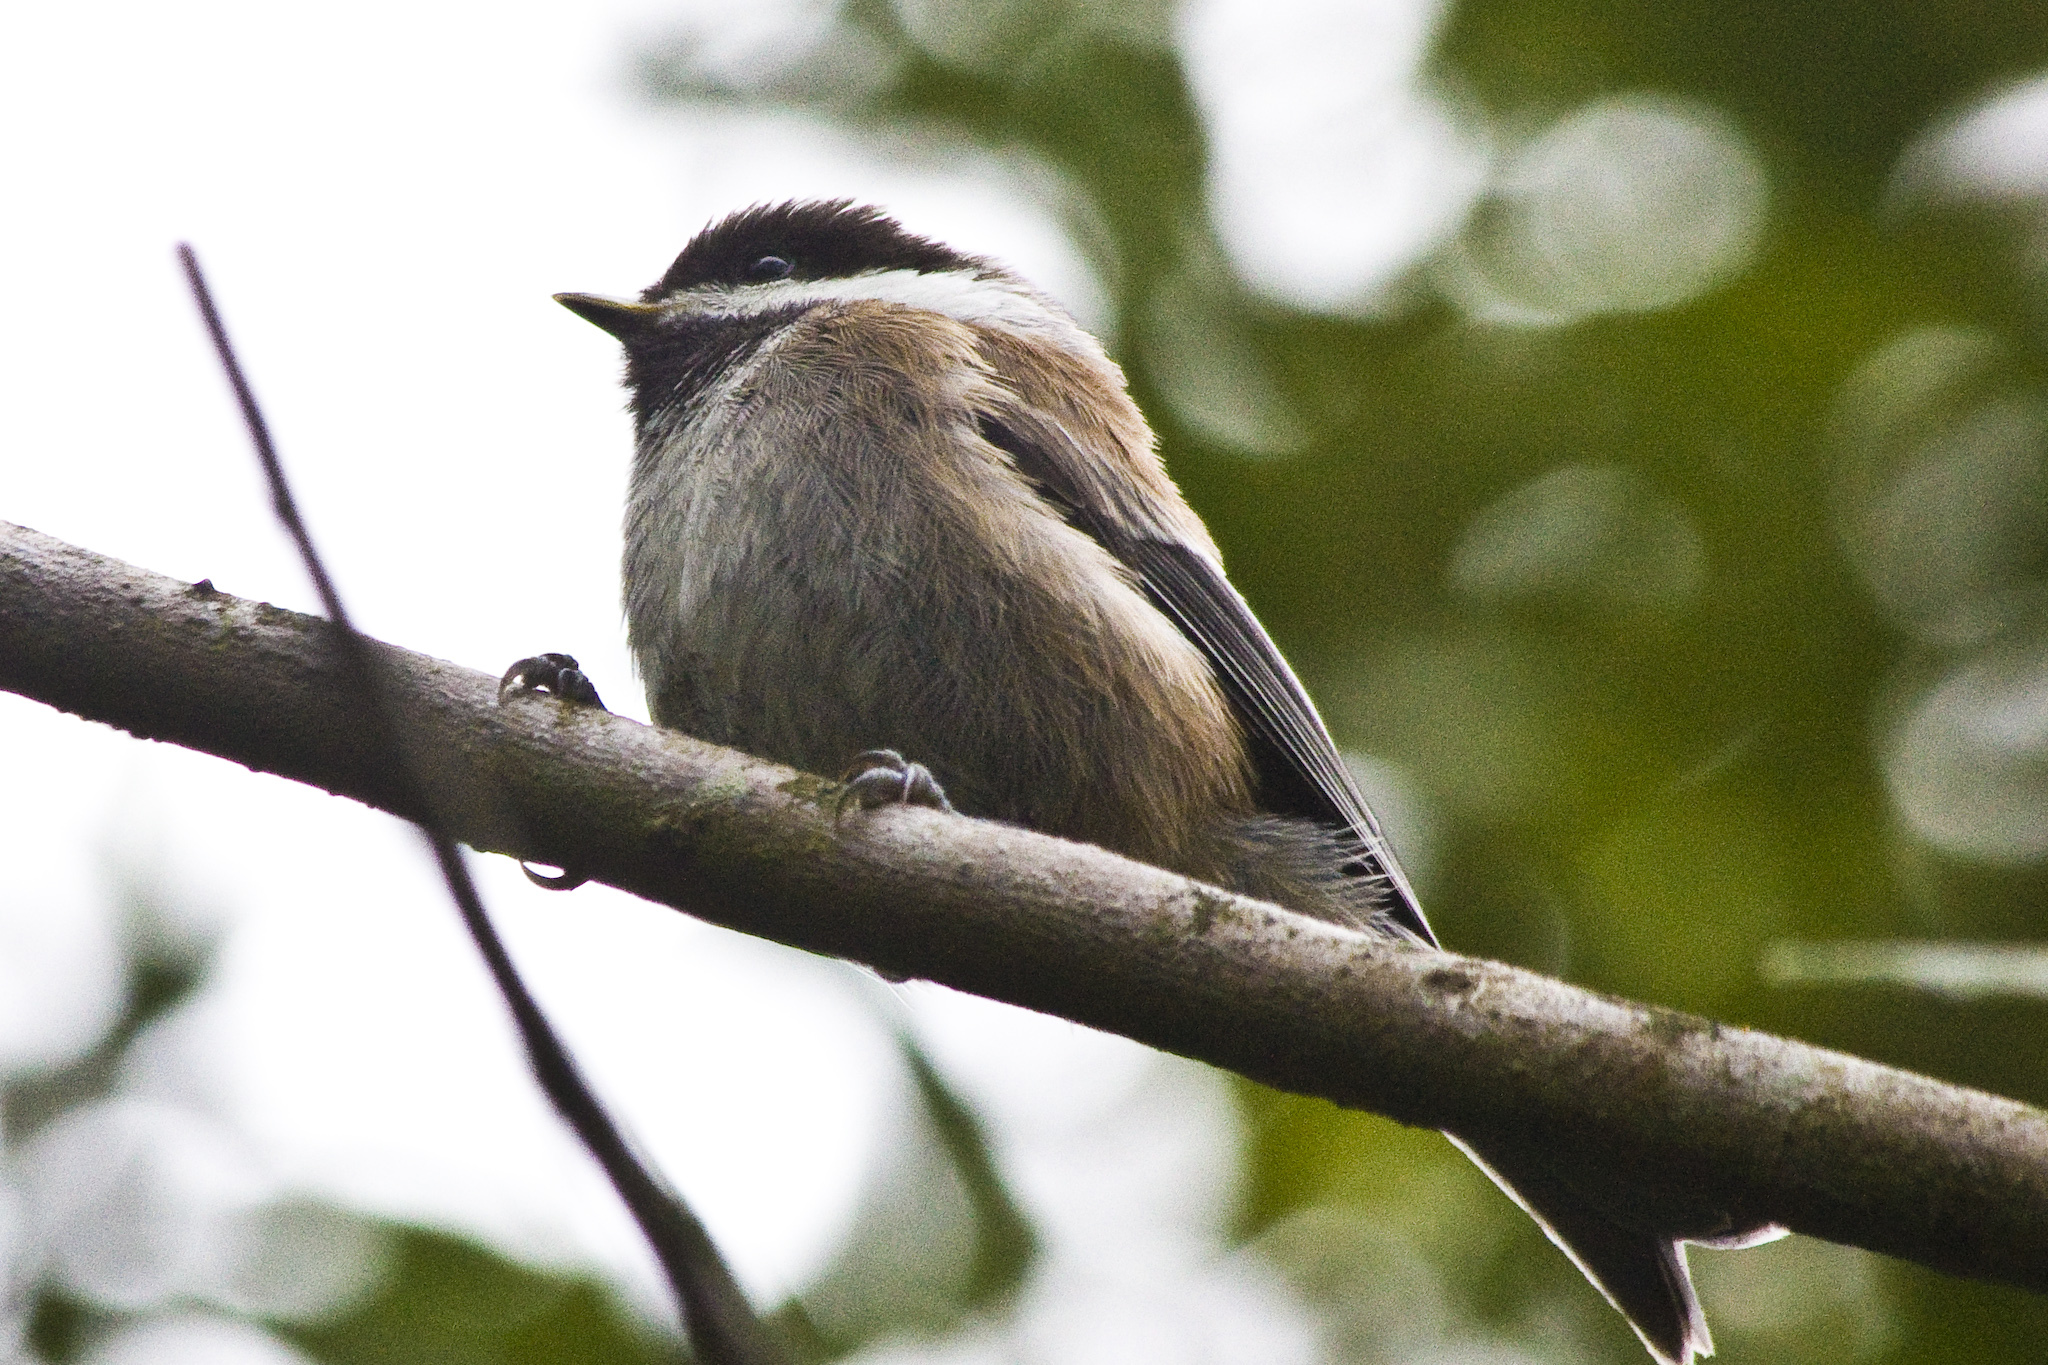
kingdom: Animalia
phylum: Chordata
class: Aves
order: Passeriformes
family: Paridae
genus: Poecile
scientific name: Poecile rufescens
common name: Chestnut-backed chickadee
